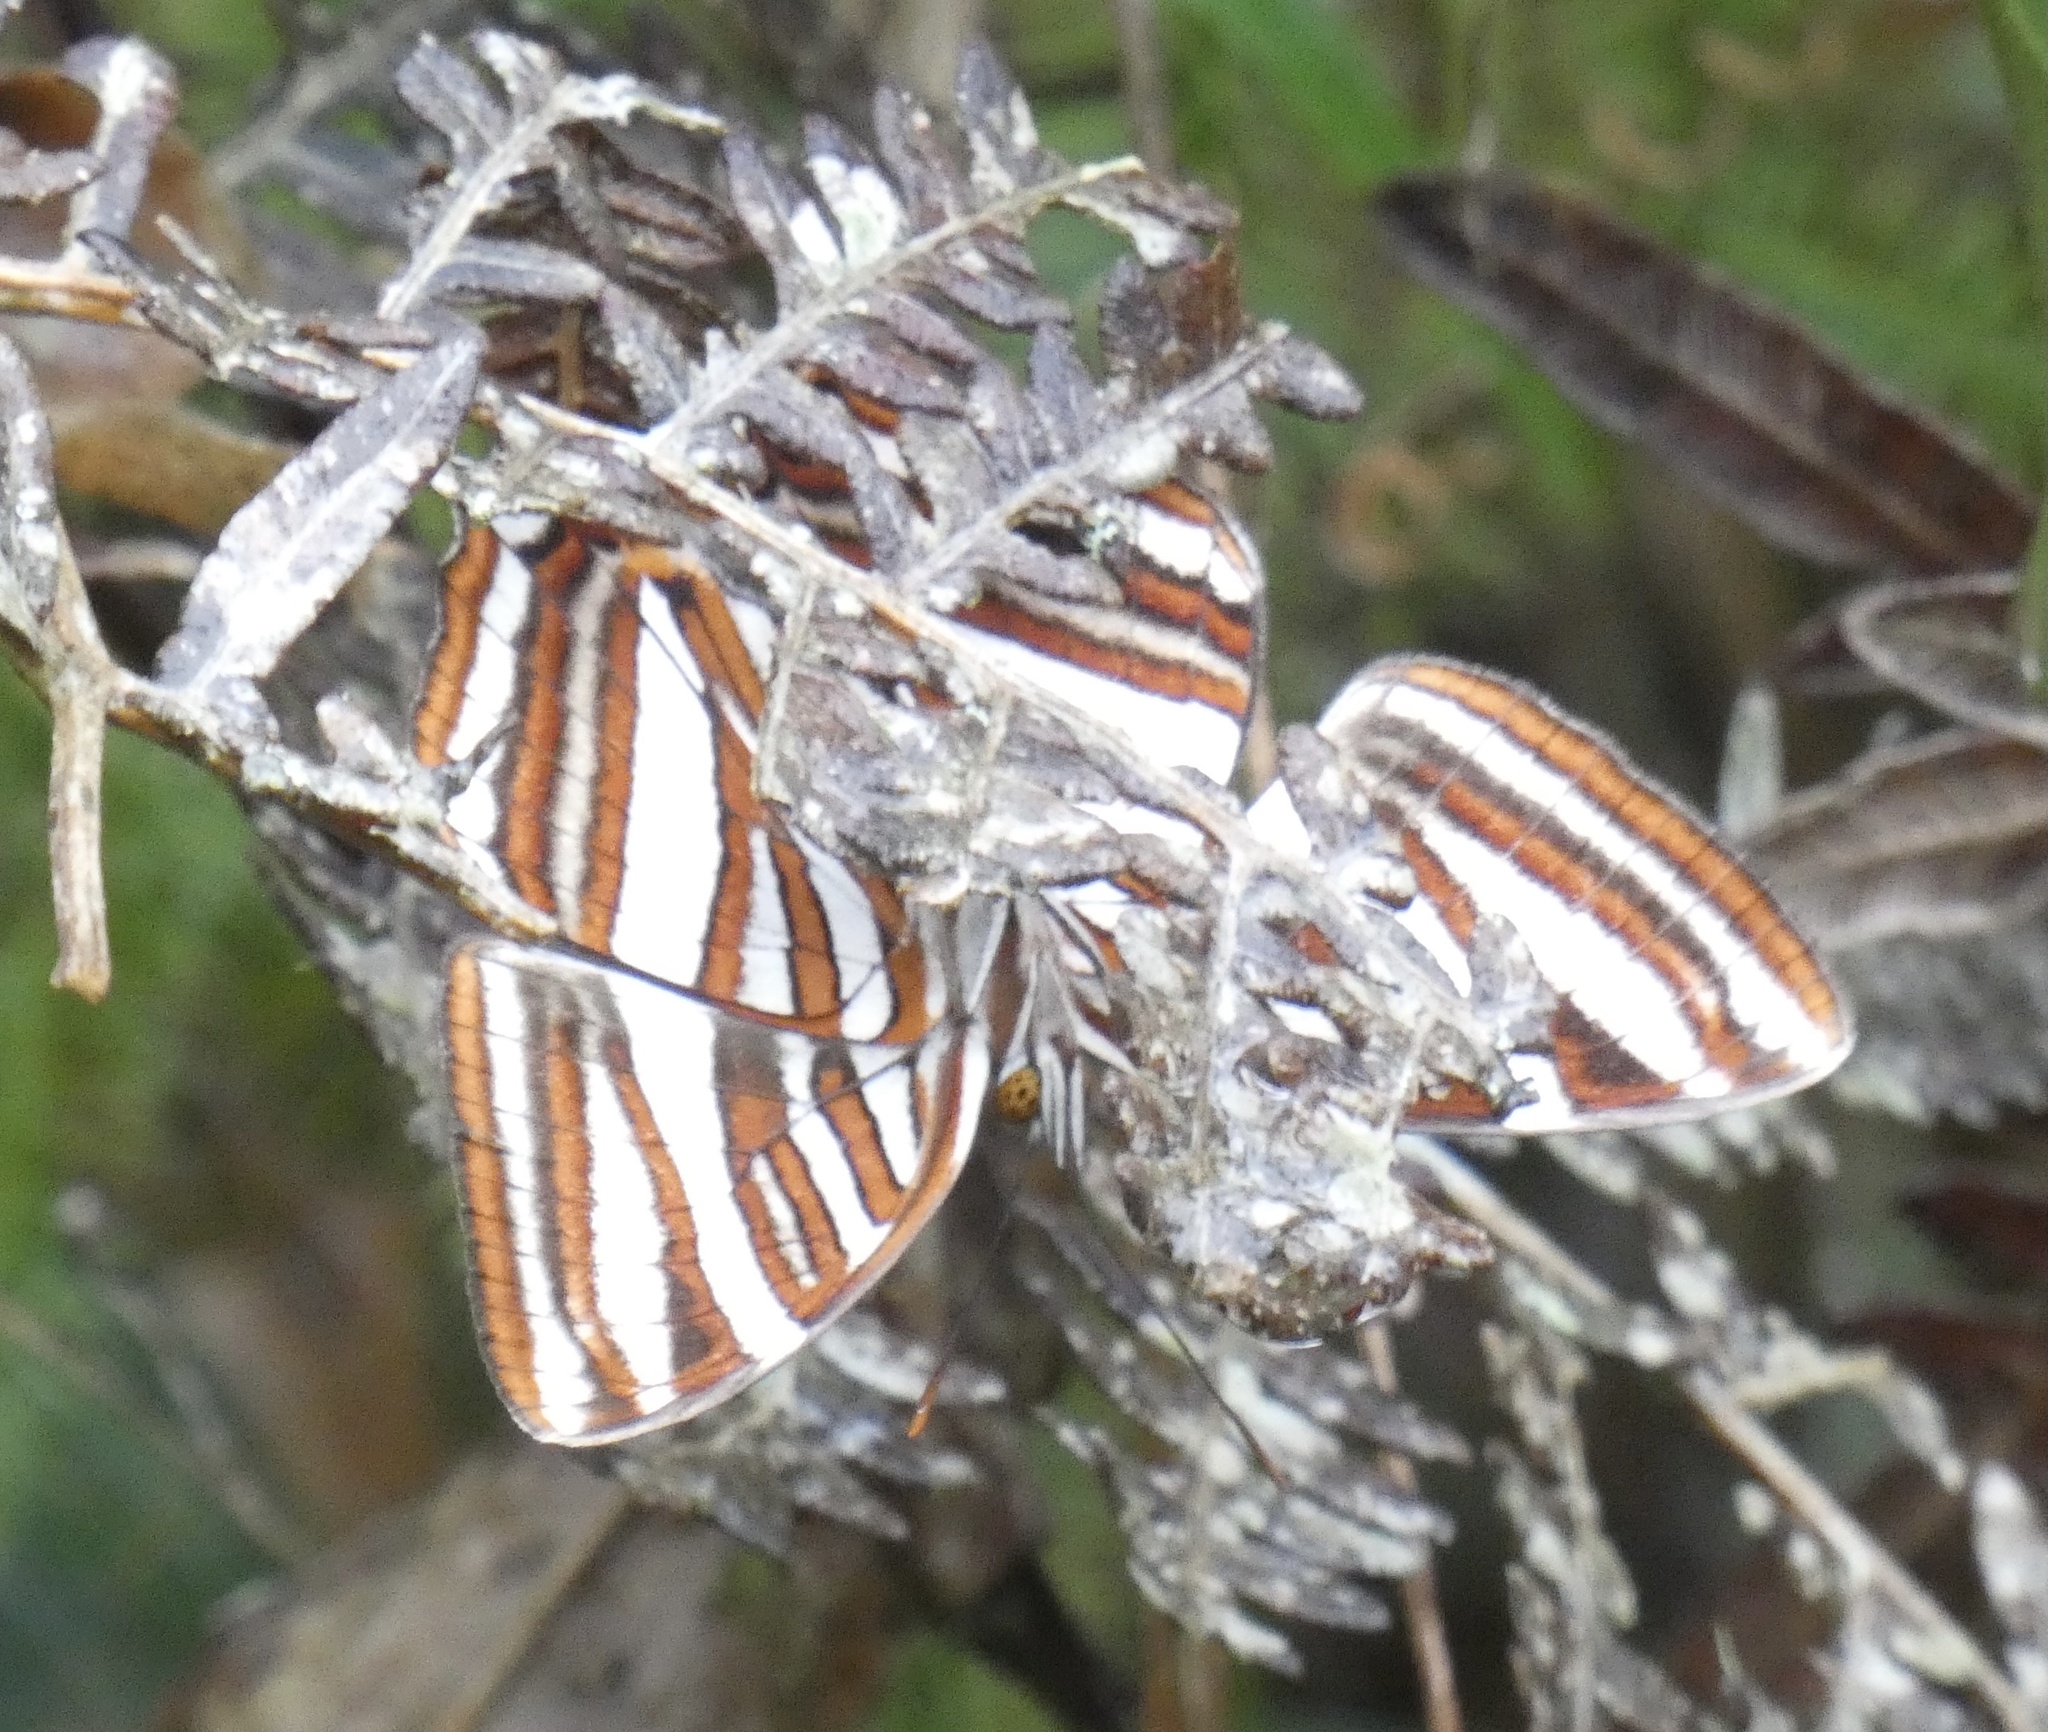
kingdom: Animalia
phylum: Arthropoda
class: Insecta
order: Lepidoptera
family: Nymphalidae
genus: Limenitis
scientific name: Limenitis syma
